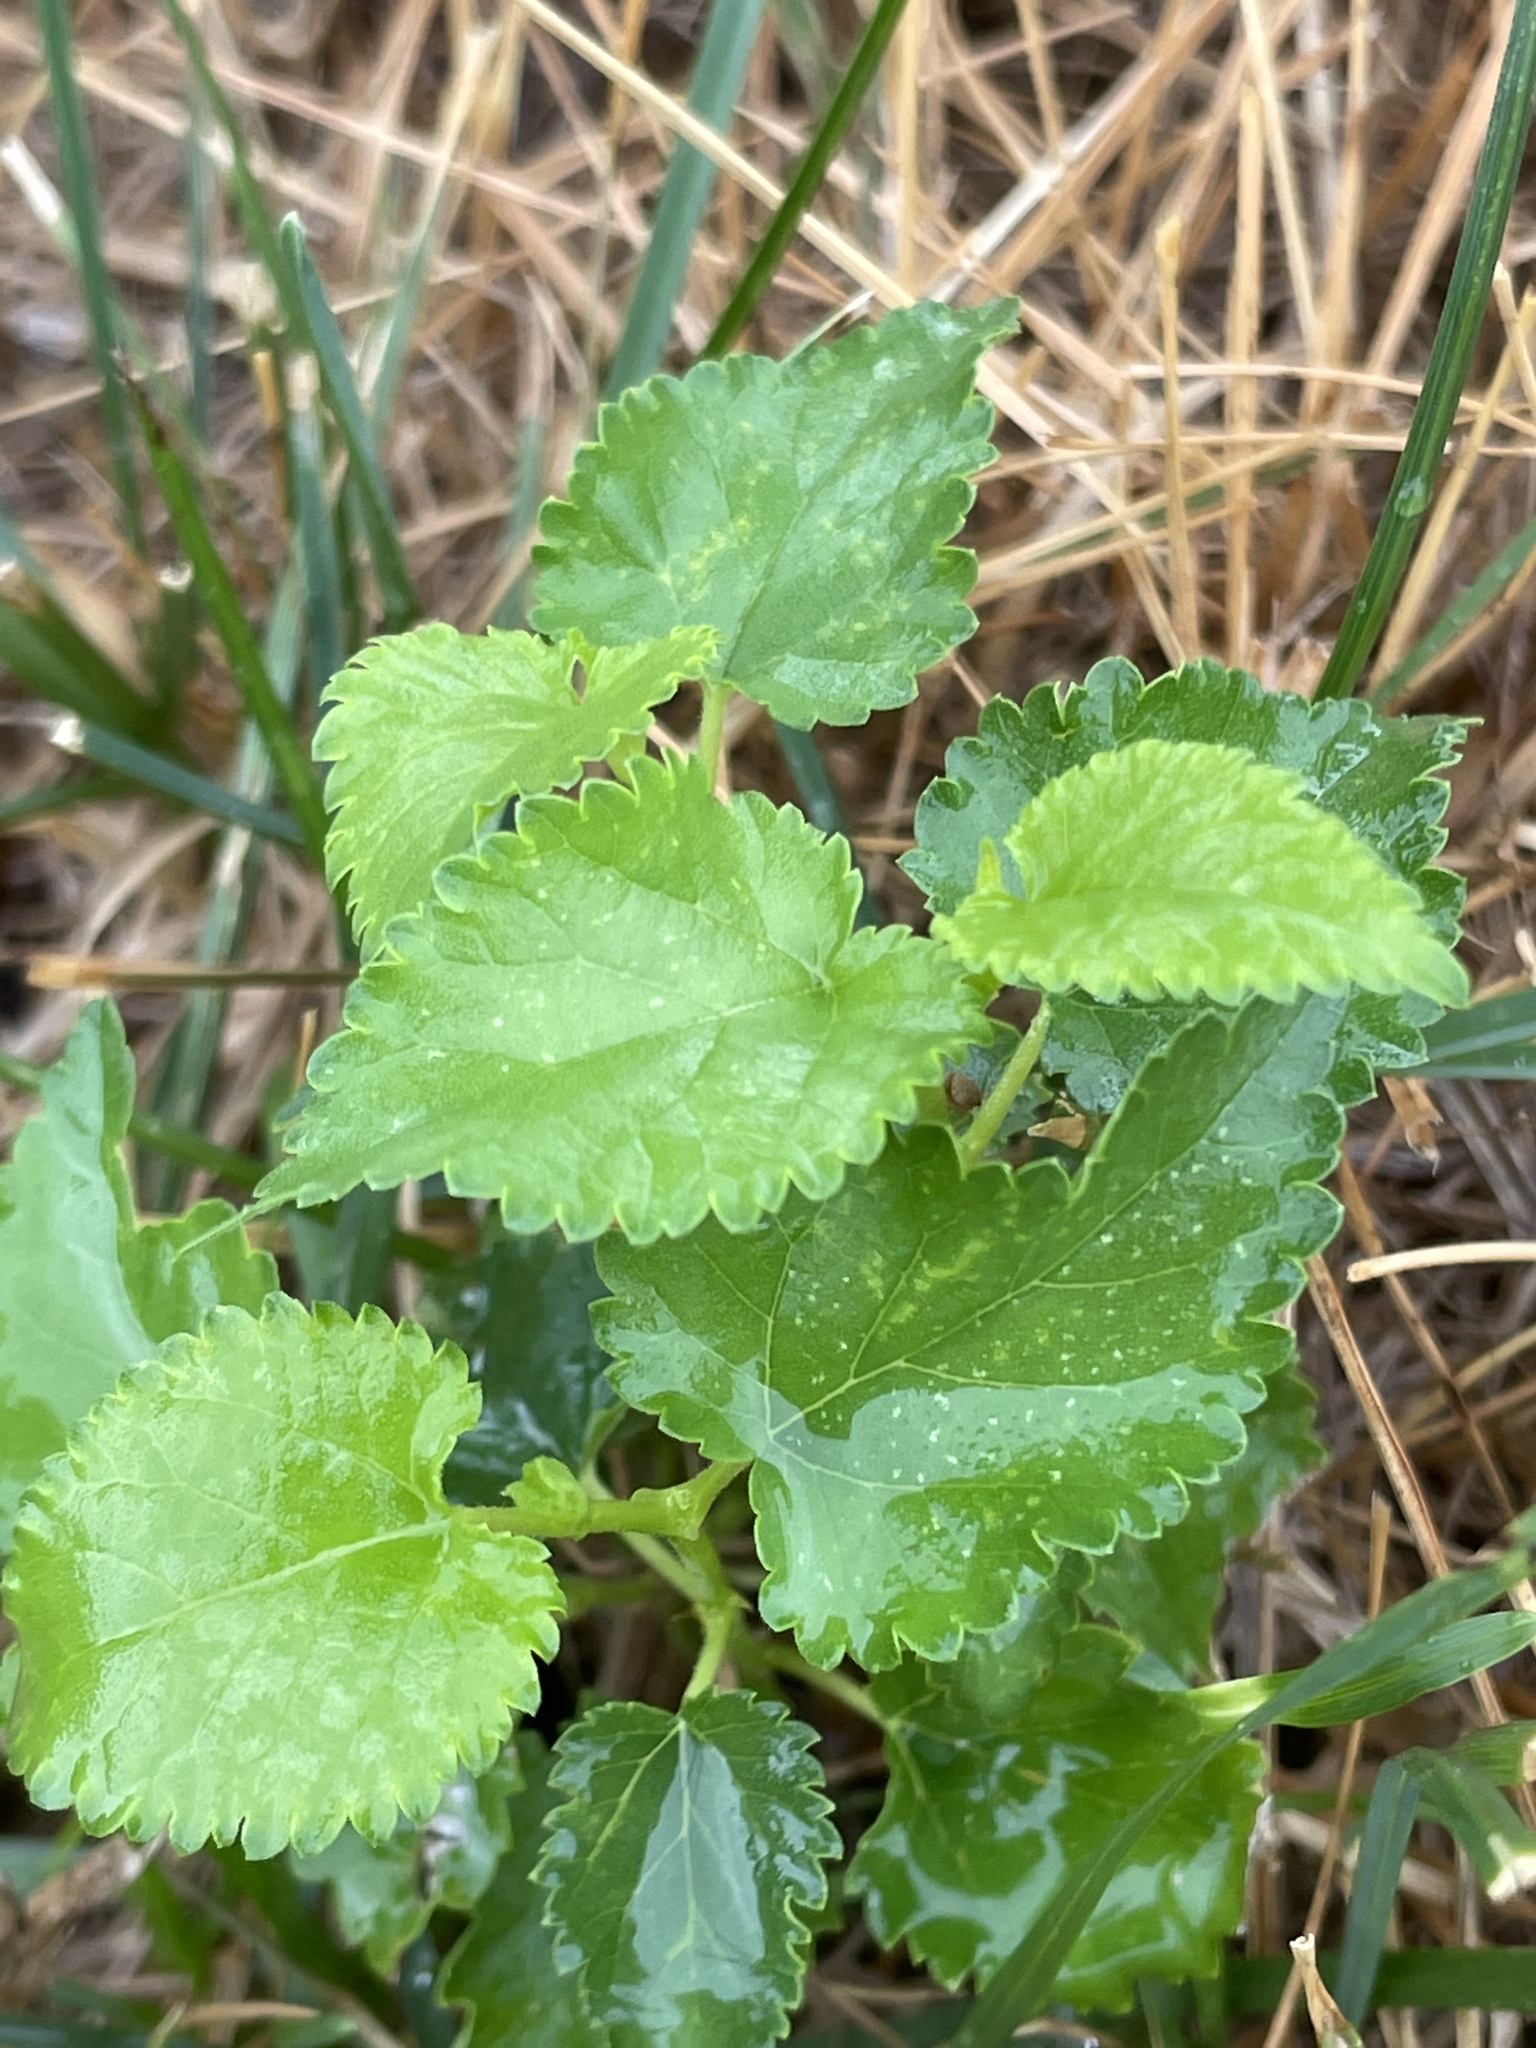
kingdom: Plantae
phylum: Tracheophyta
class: Magnoliopsida
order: Rosales
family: Moraceae
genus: Morus
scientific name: Morus alba
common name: White mulberry
